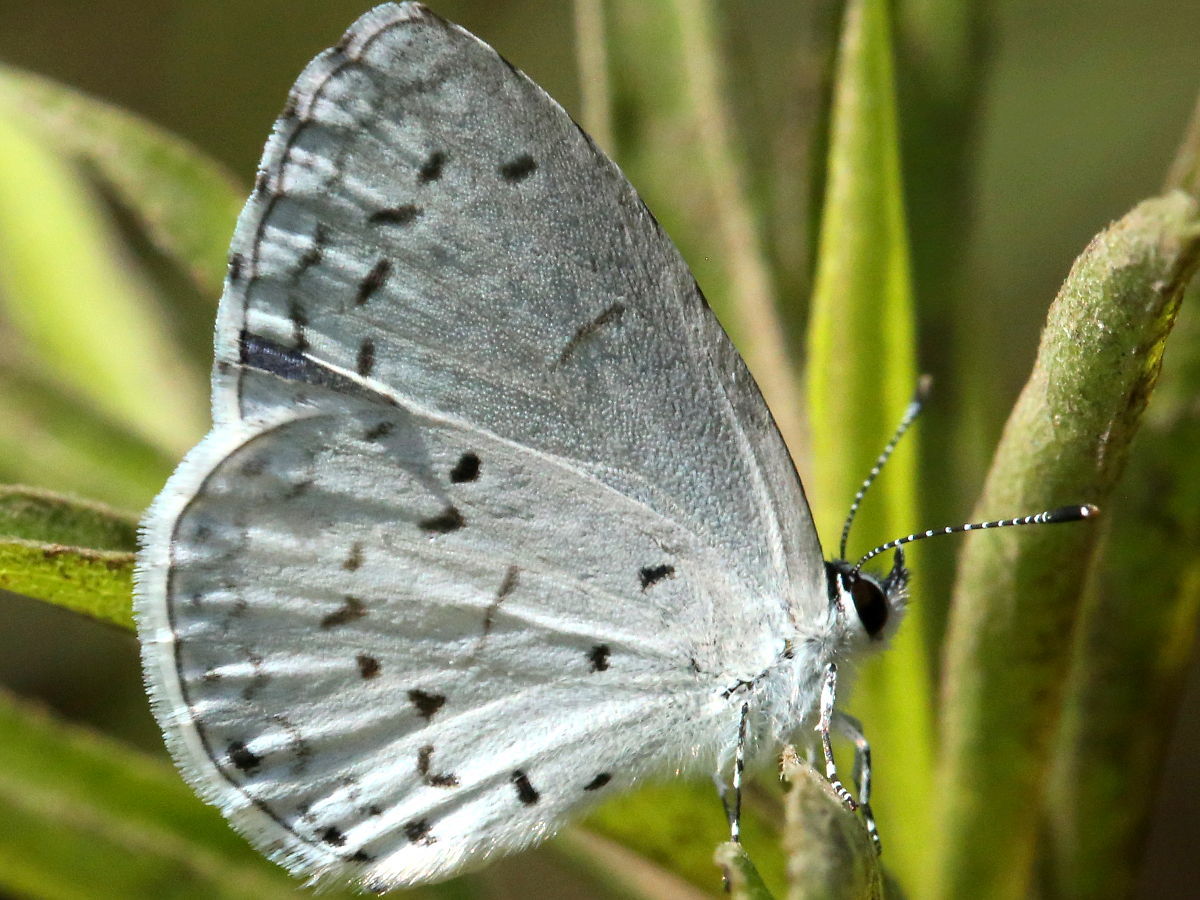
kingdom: Animalia
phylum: Arthropoda
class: Insecta
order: Lepidoptera
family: Lycaenidae
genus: Cyaniris
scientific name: Cyaniris neglecta
